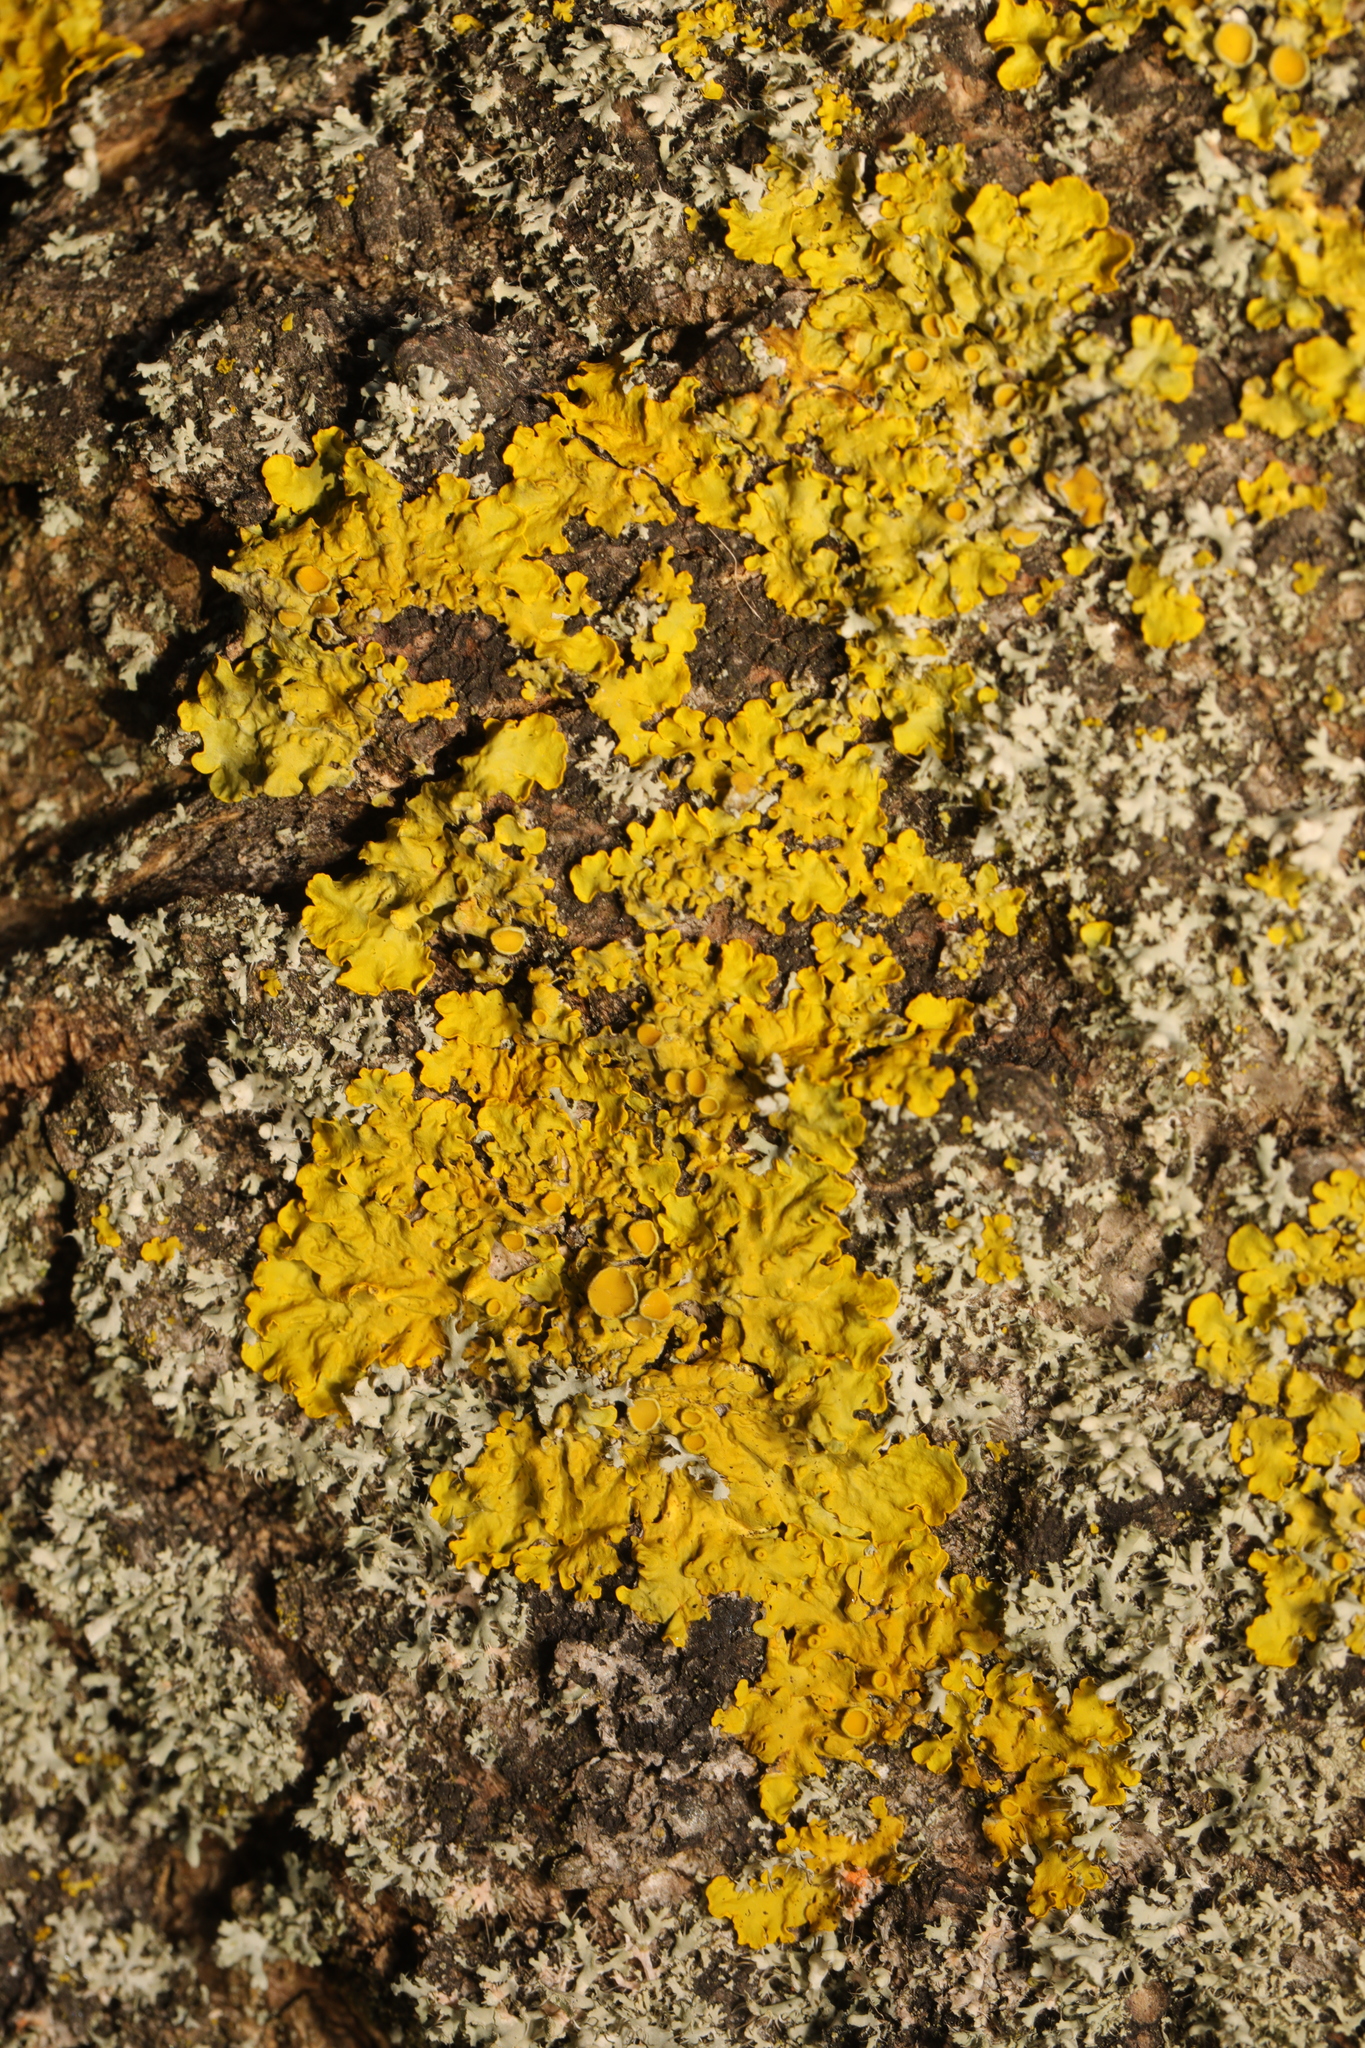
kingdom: Fungi
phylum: Ascomycota
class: Lecanoromycetes
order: Teloschistales
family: Teloschistaceae
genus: Xanthoria
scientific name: Xanthoria parietina
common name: Common orange lichen
